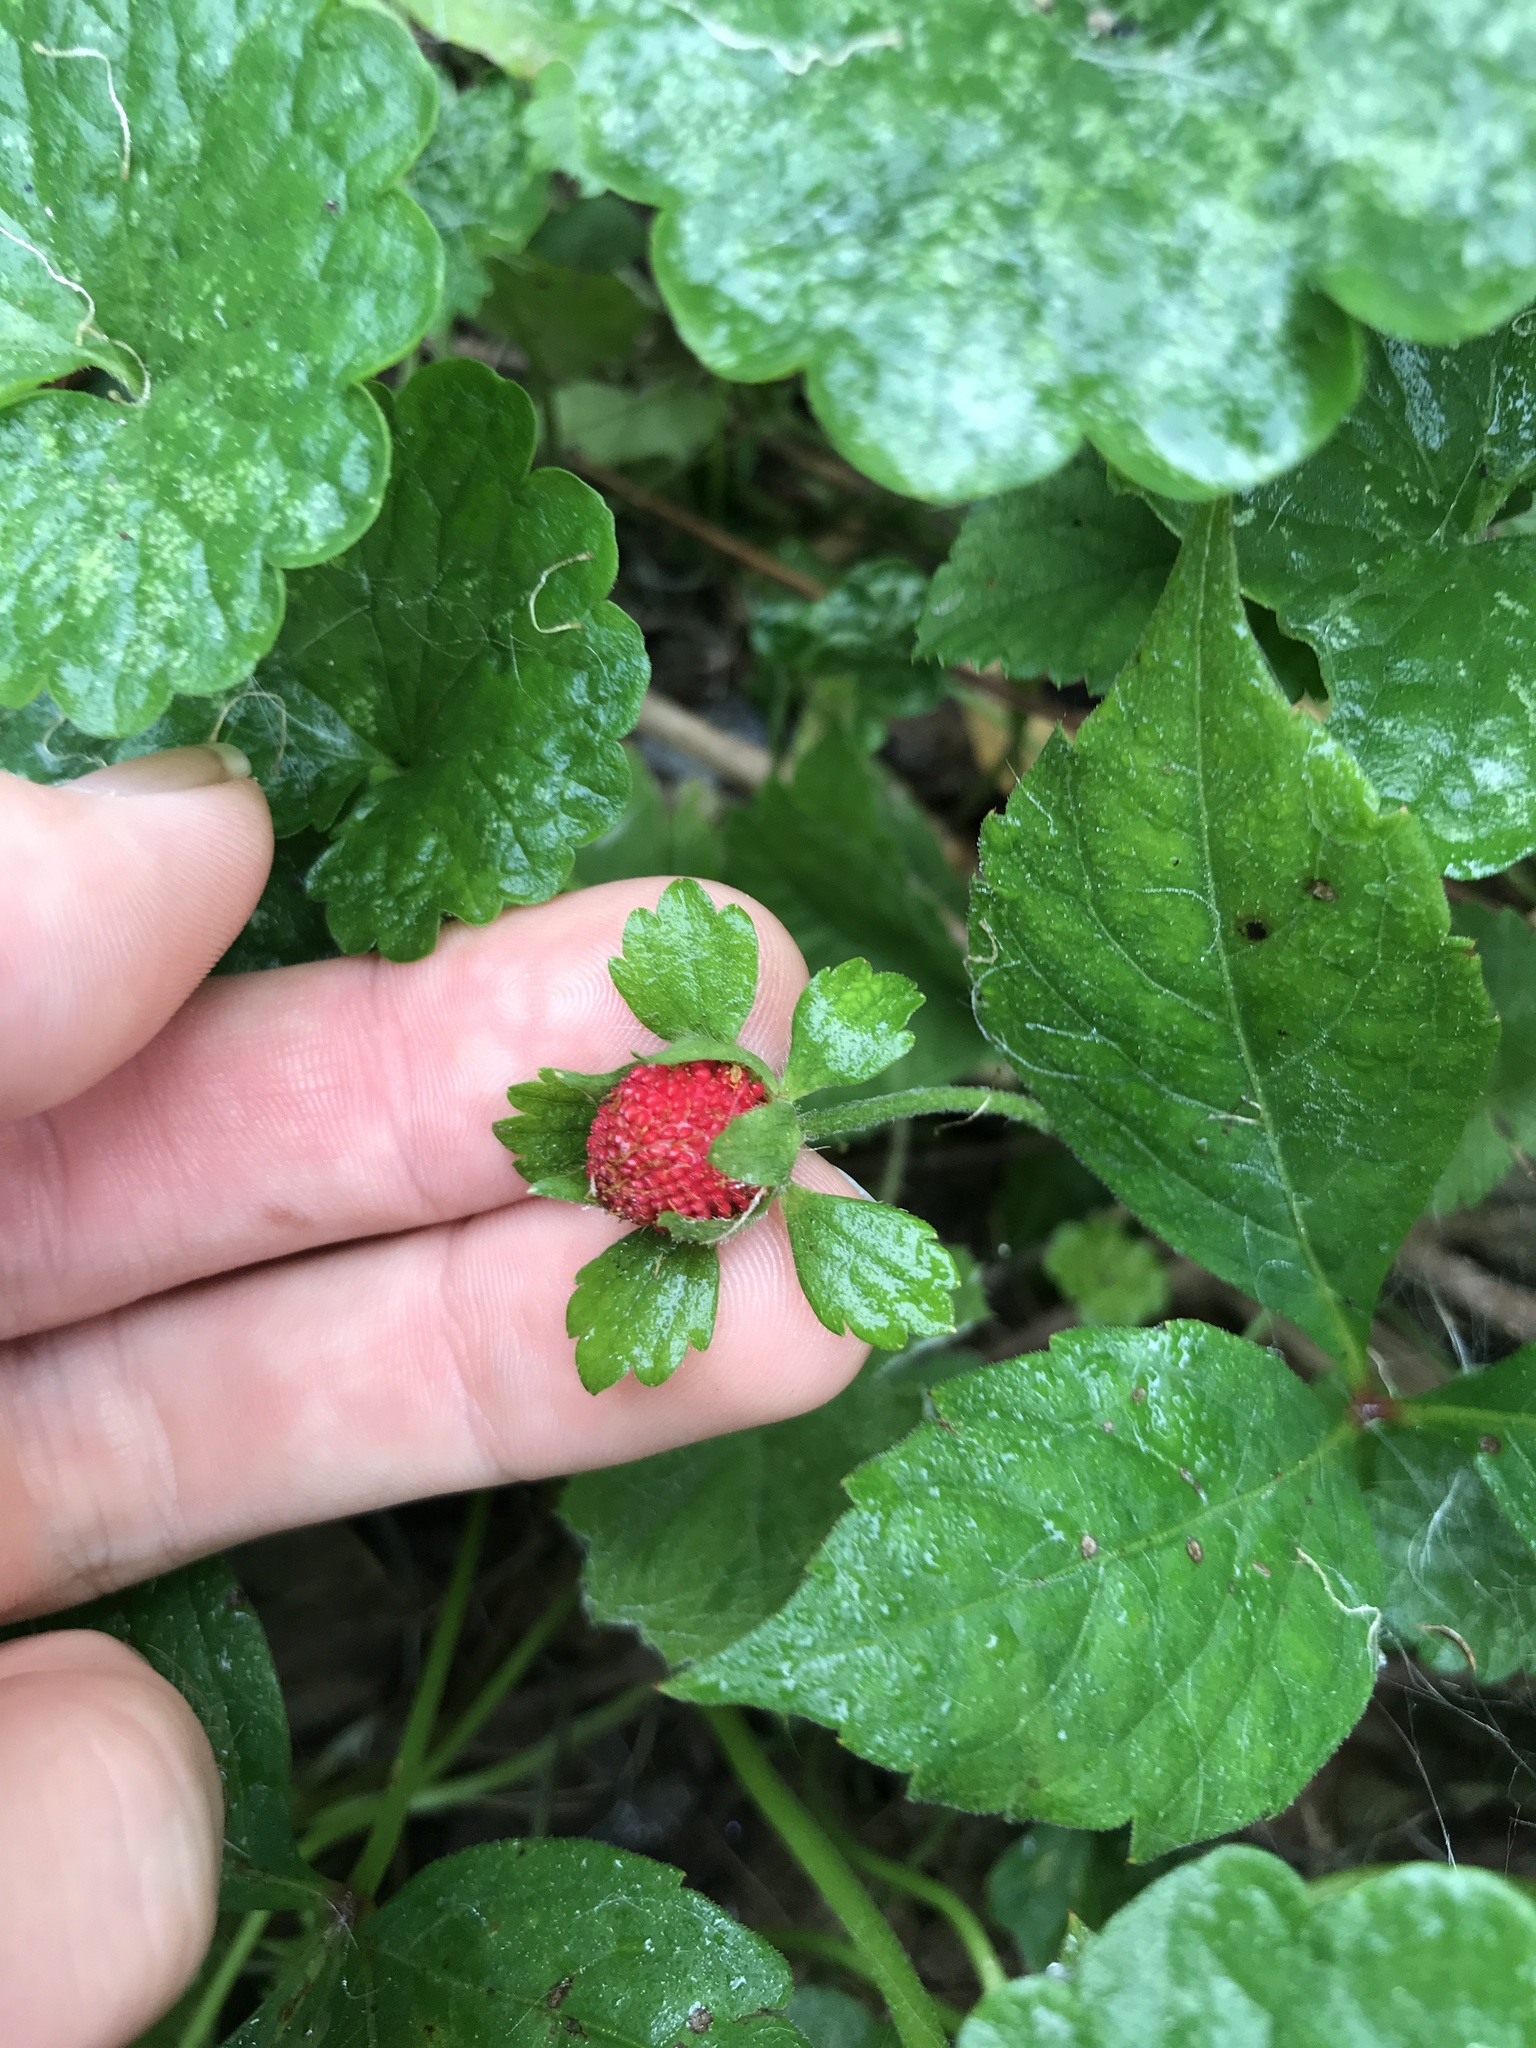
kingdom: Plantae
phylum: Tracheophyta
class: Magnoliopsida
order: Rosales
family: Rosaceae
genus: Potentilla
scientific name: Potentilla indica
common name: Yellow-flowered strawberry
